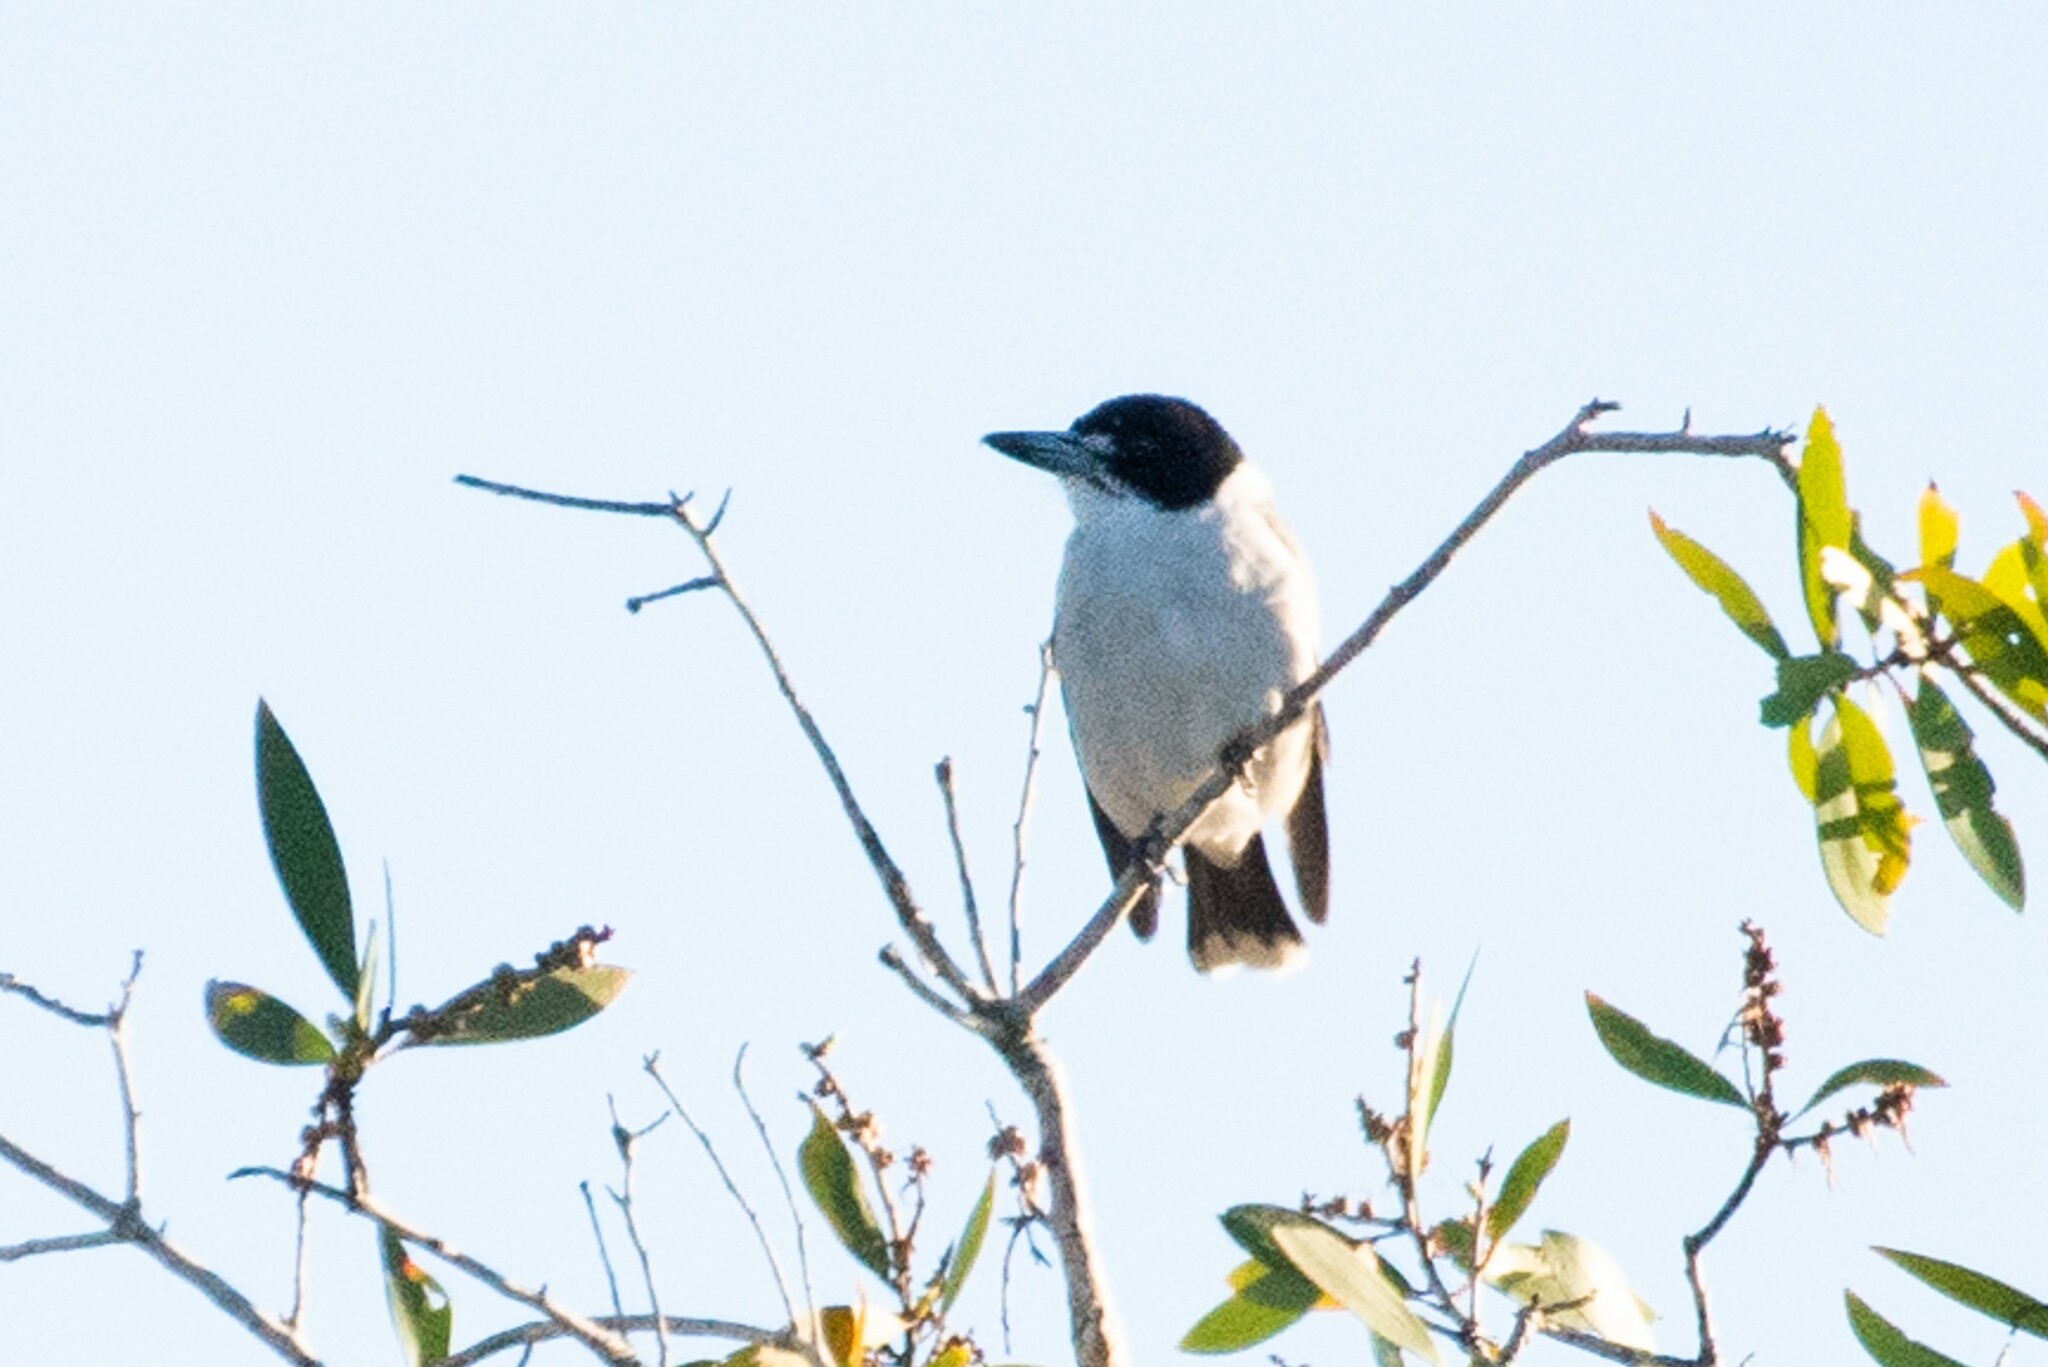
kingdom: Animalia
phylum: Chordata
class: Aves
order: Passeriformes
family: Cracticidae
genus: Cracticus
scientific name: Cracticus torquatus
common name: Grey butcherbird
